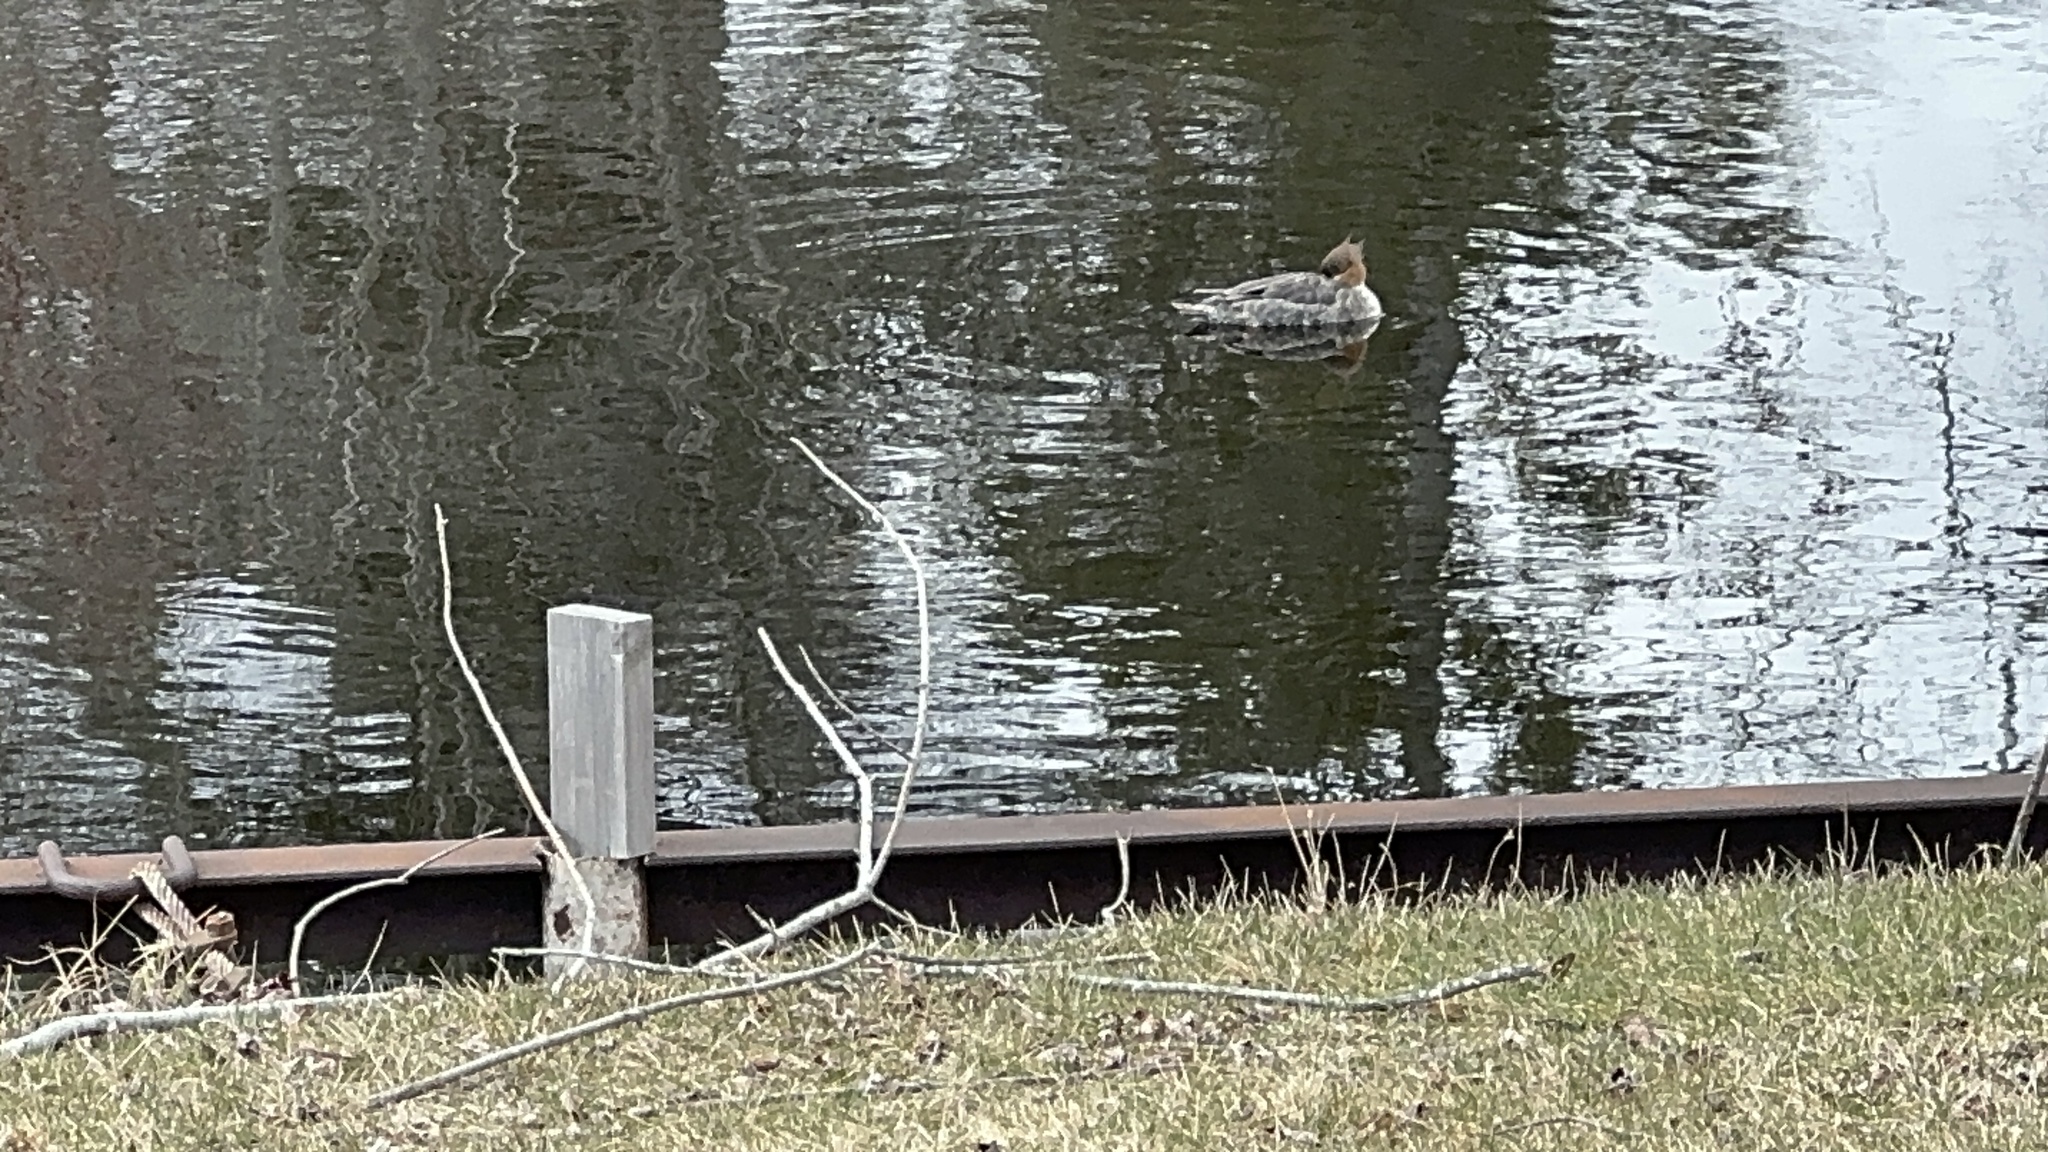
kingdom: Animalia
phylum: Chordata
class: Aves
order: Anseriformes
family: Anatidae
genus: Mergus
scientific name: Mergus merganser
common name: Common merganser
